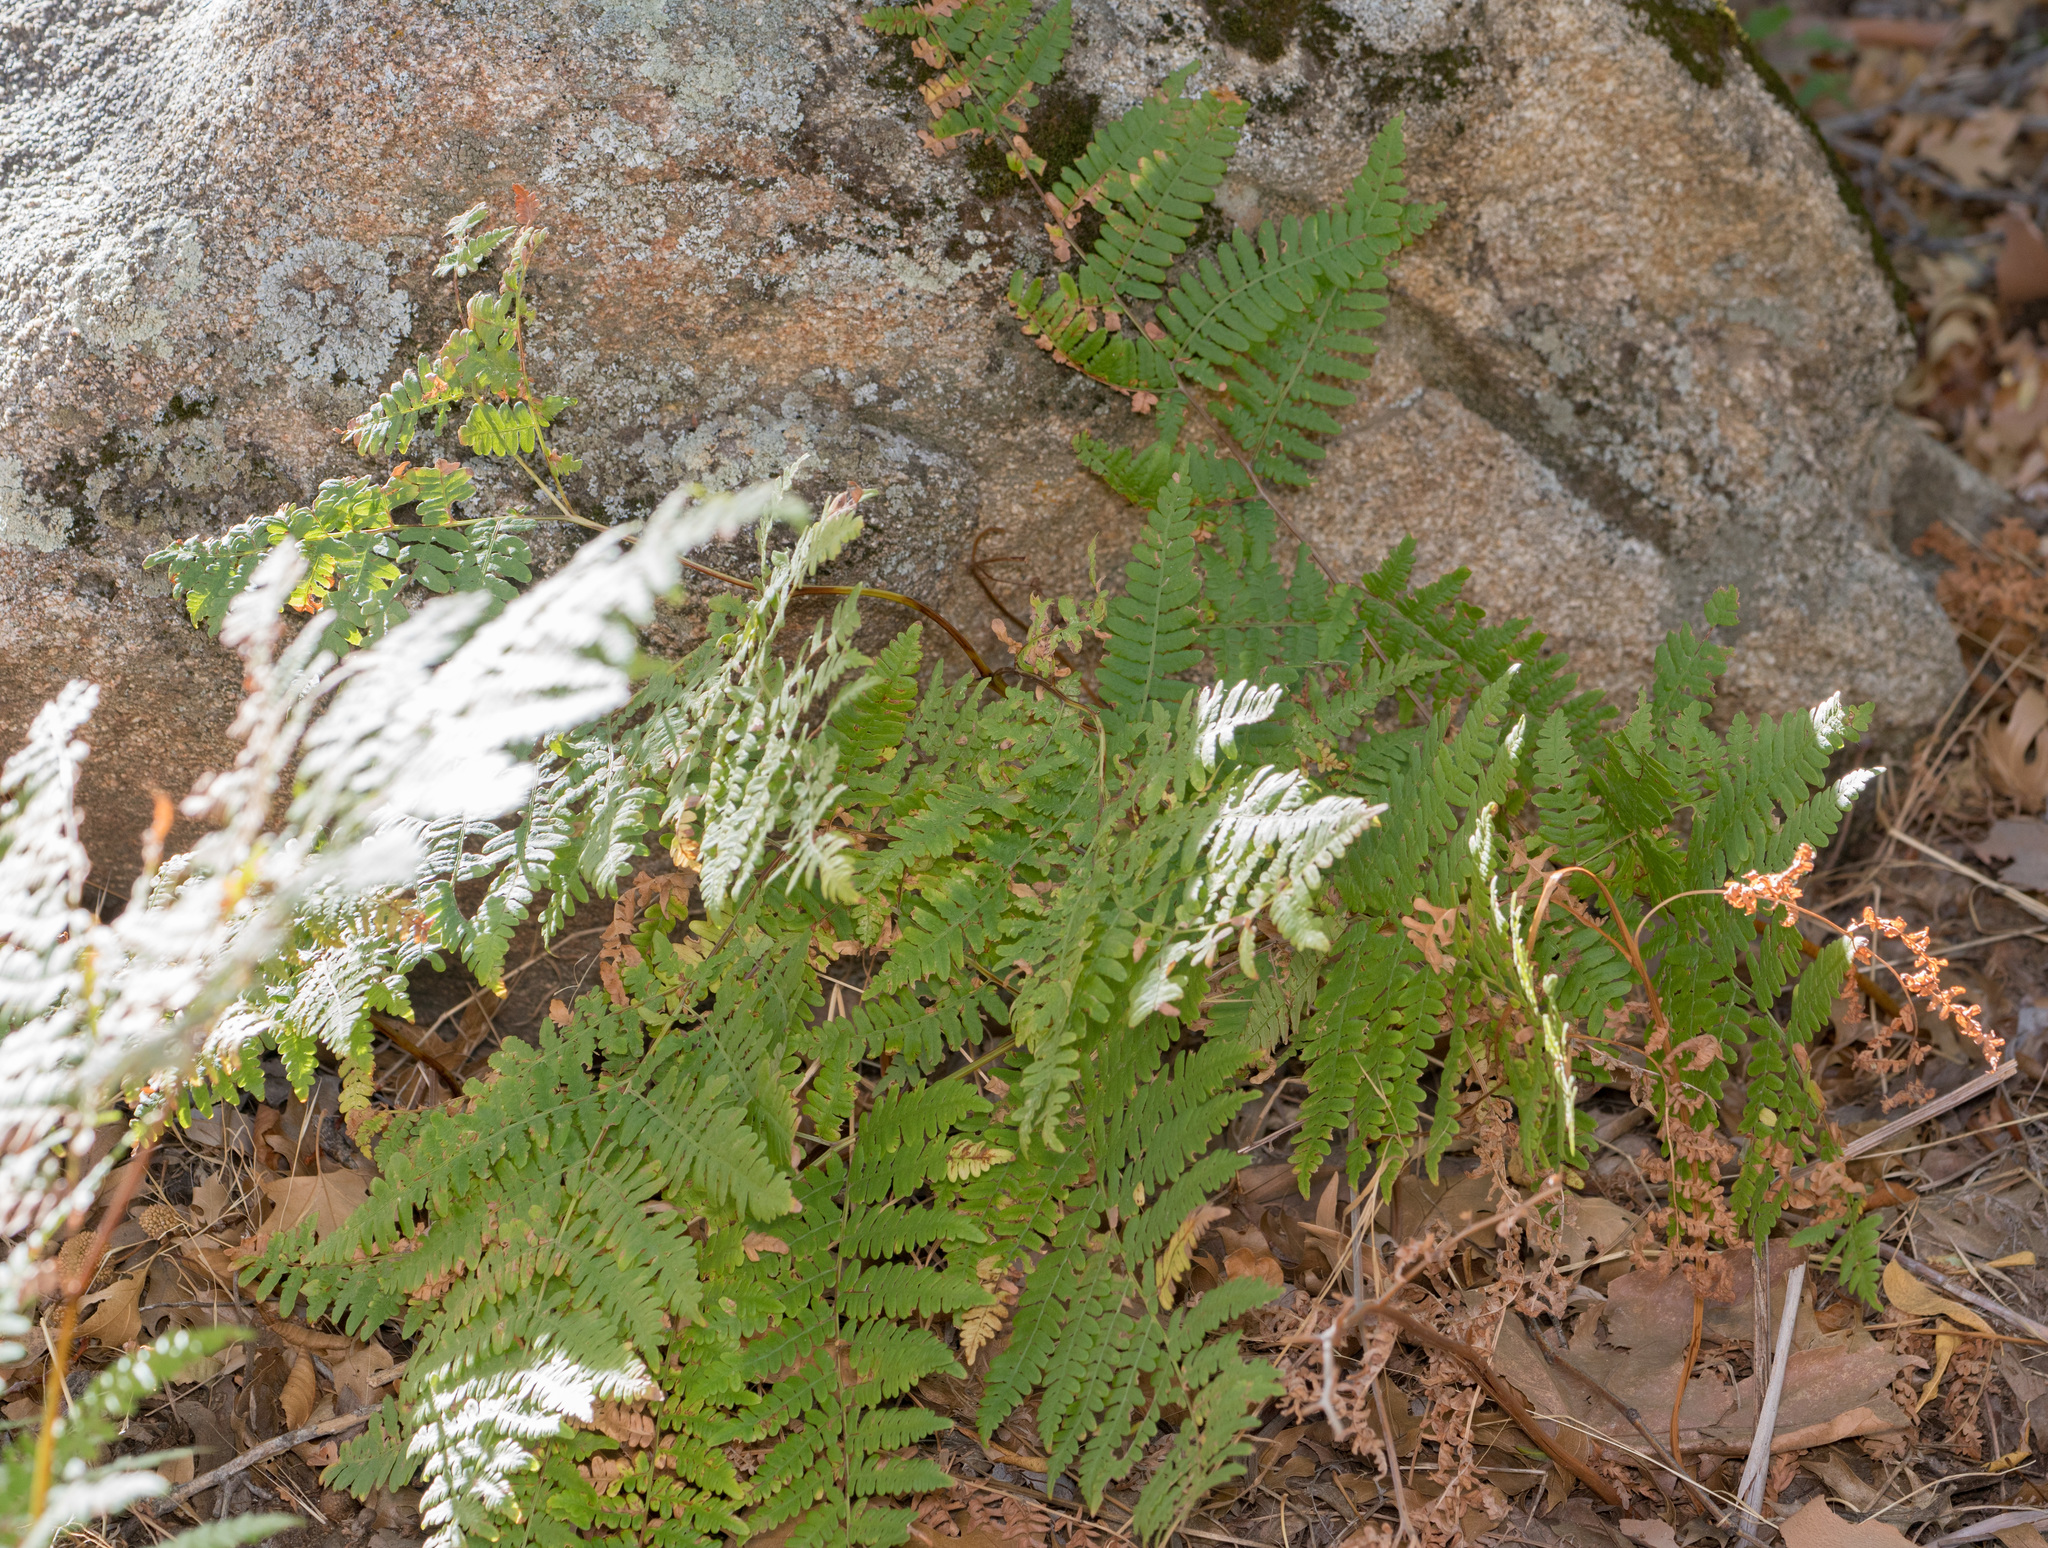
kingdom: Plantae
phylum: Tracheophyta
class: Polypodiopsida
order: Polypodiales
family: Dennstaedtiaceae
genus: Pteridium
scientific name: Pteridium aquilinum
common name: Bracken
